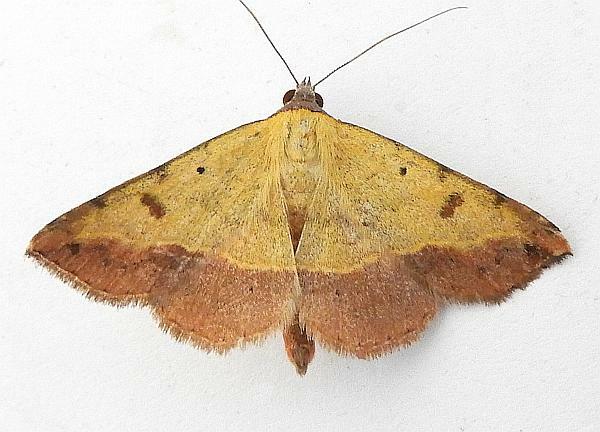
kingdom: Animalia
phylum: Arthropoda
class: Insecta
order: Lepidoptera
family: Erebidae
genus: Hemeroplanis
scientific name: Hemeroplanis scopulepes
